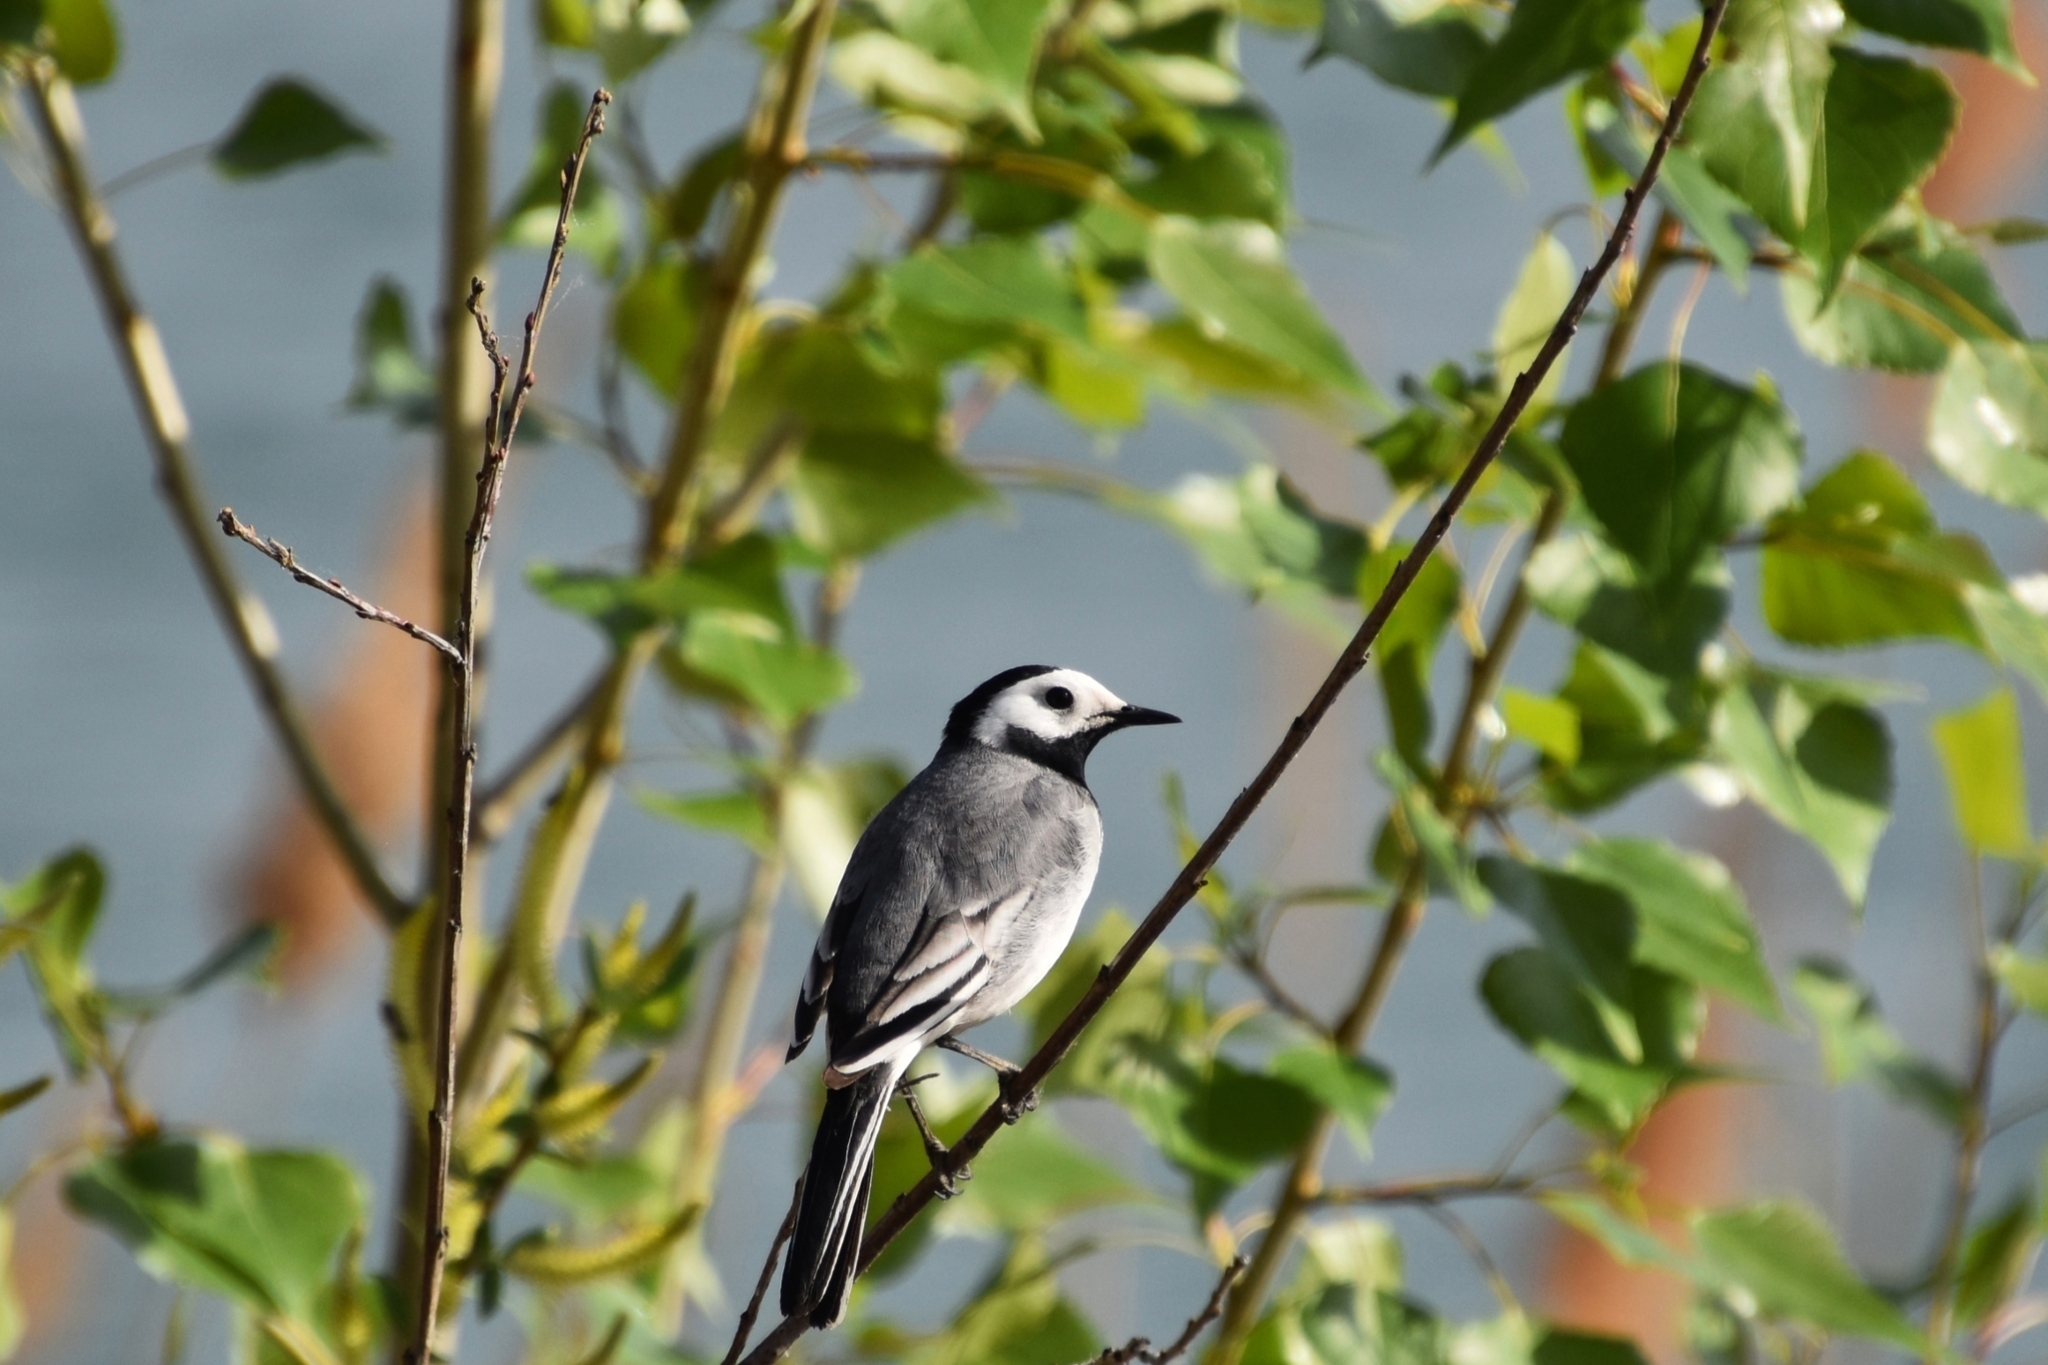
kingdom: Animalia
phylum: Chordata
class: Aves
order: Passeriformes
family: Motacillidae
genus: Motacilla
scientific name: Motacilla alba
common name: White wagtail
